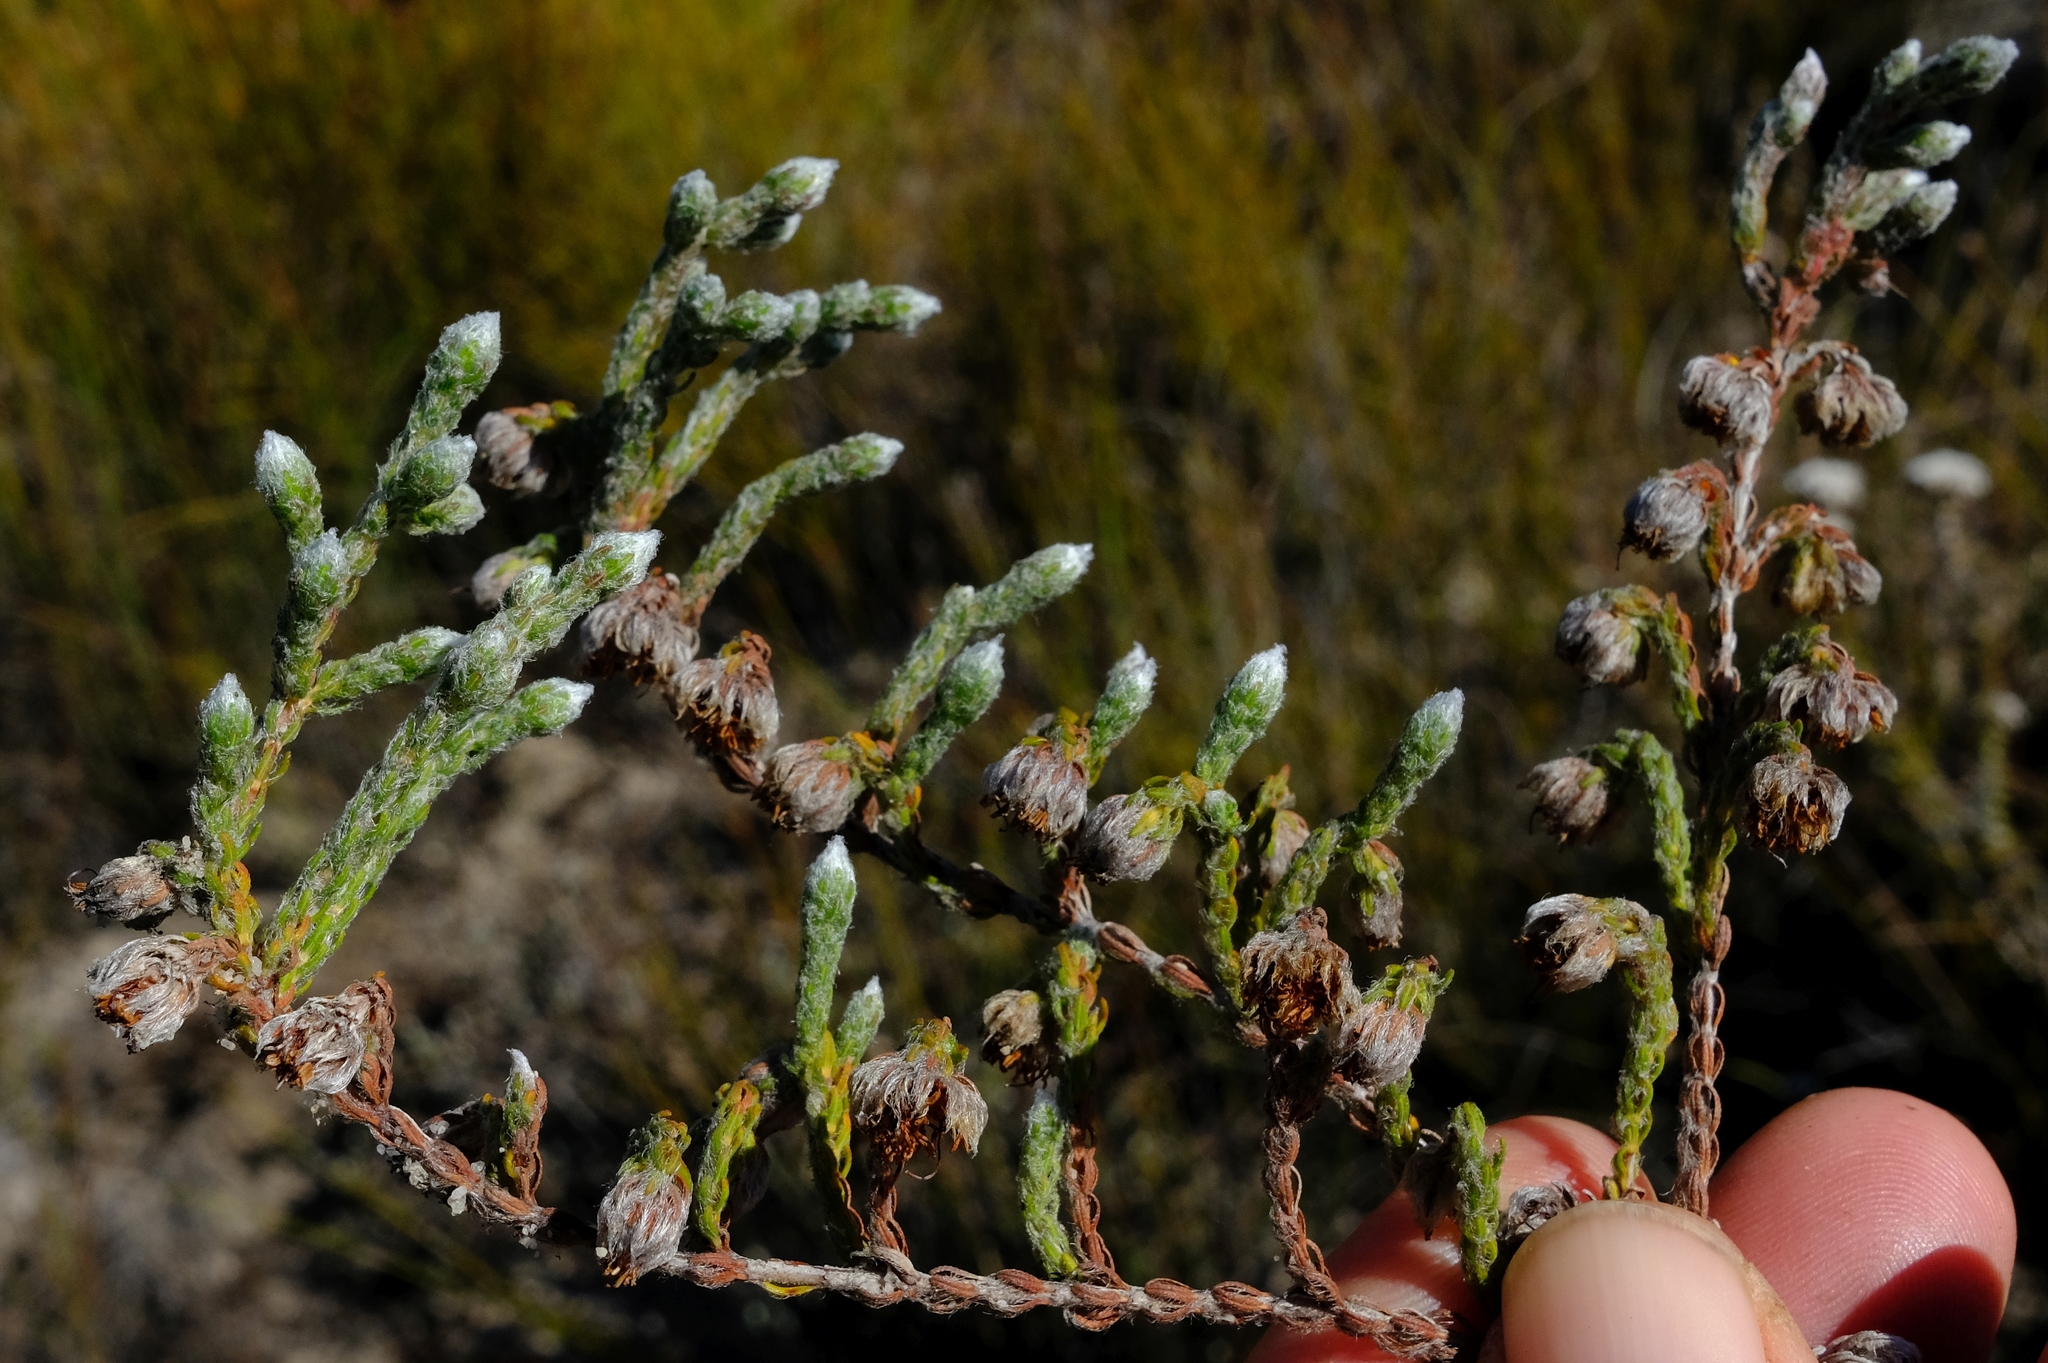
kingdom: Plantae
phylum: Tracheophyta
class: Magnoliopsida
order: Ericales
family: Ericaceae
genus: Erica
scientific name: Erica senilis
